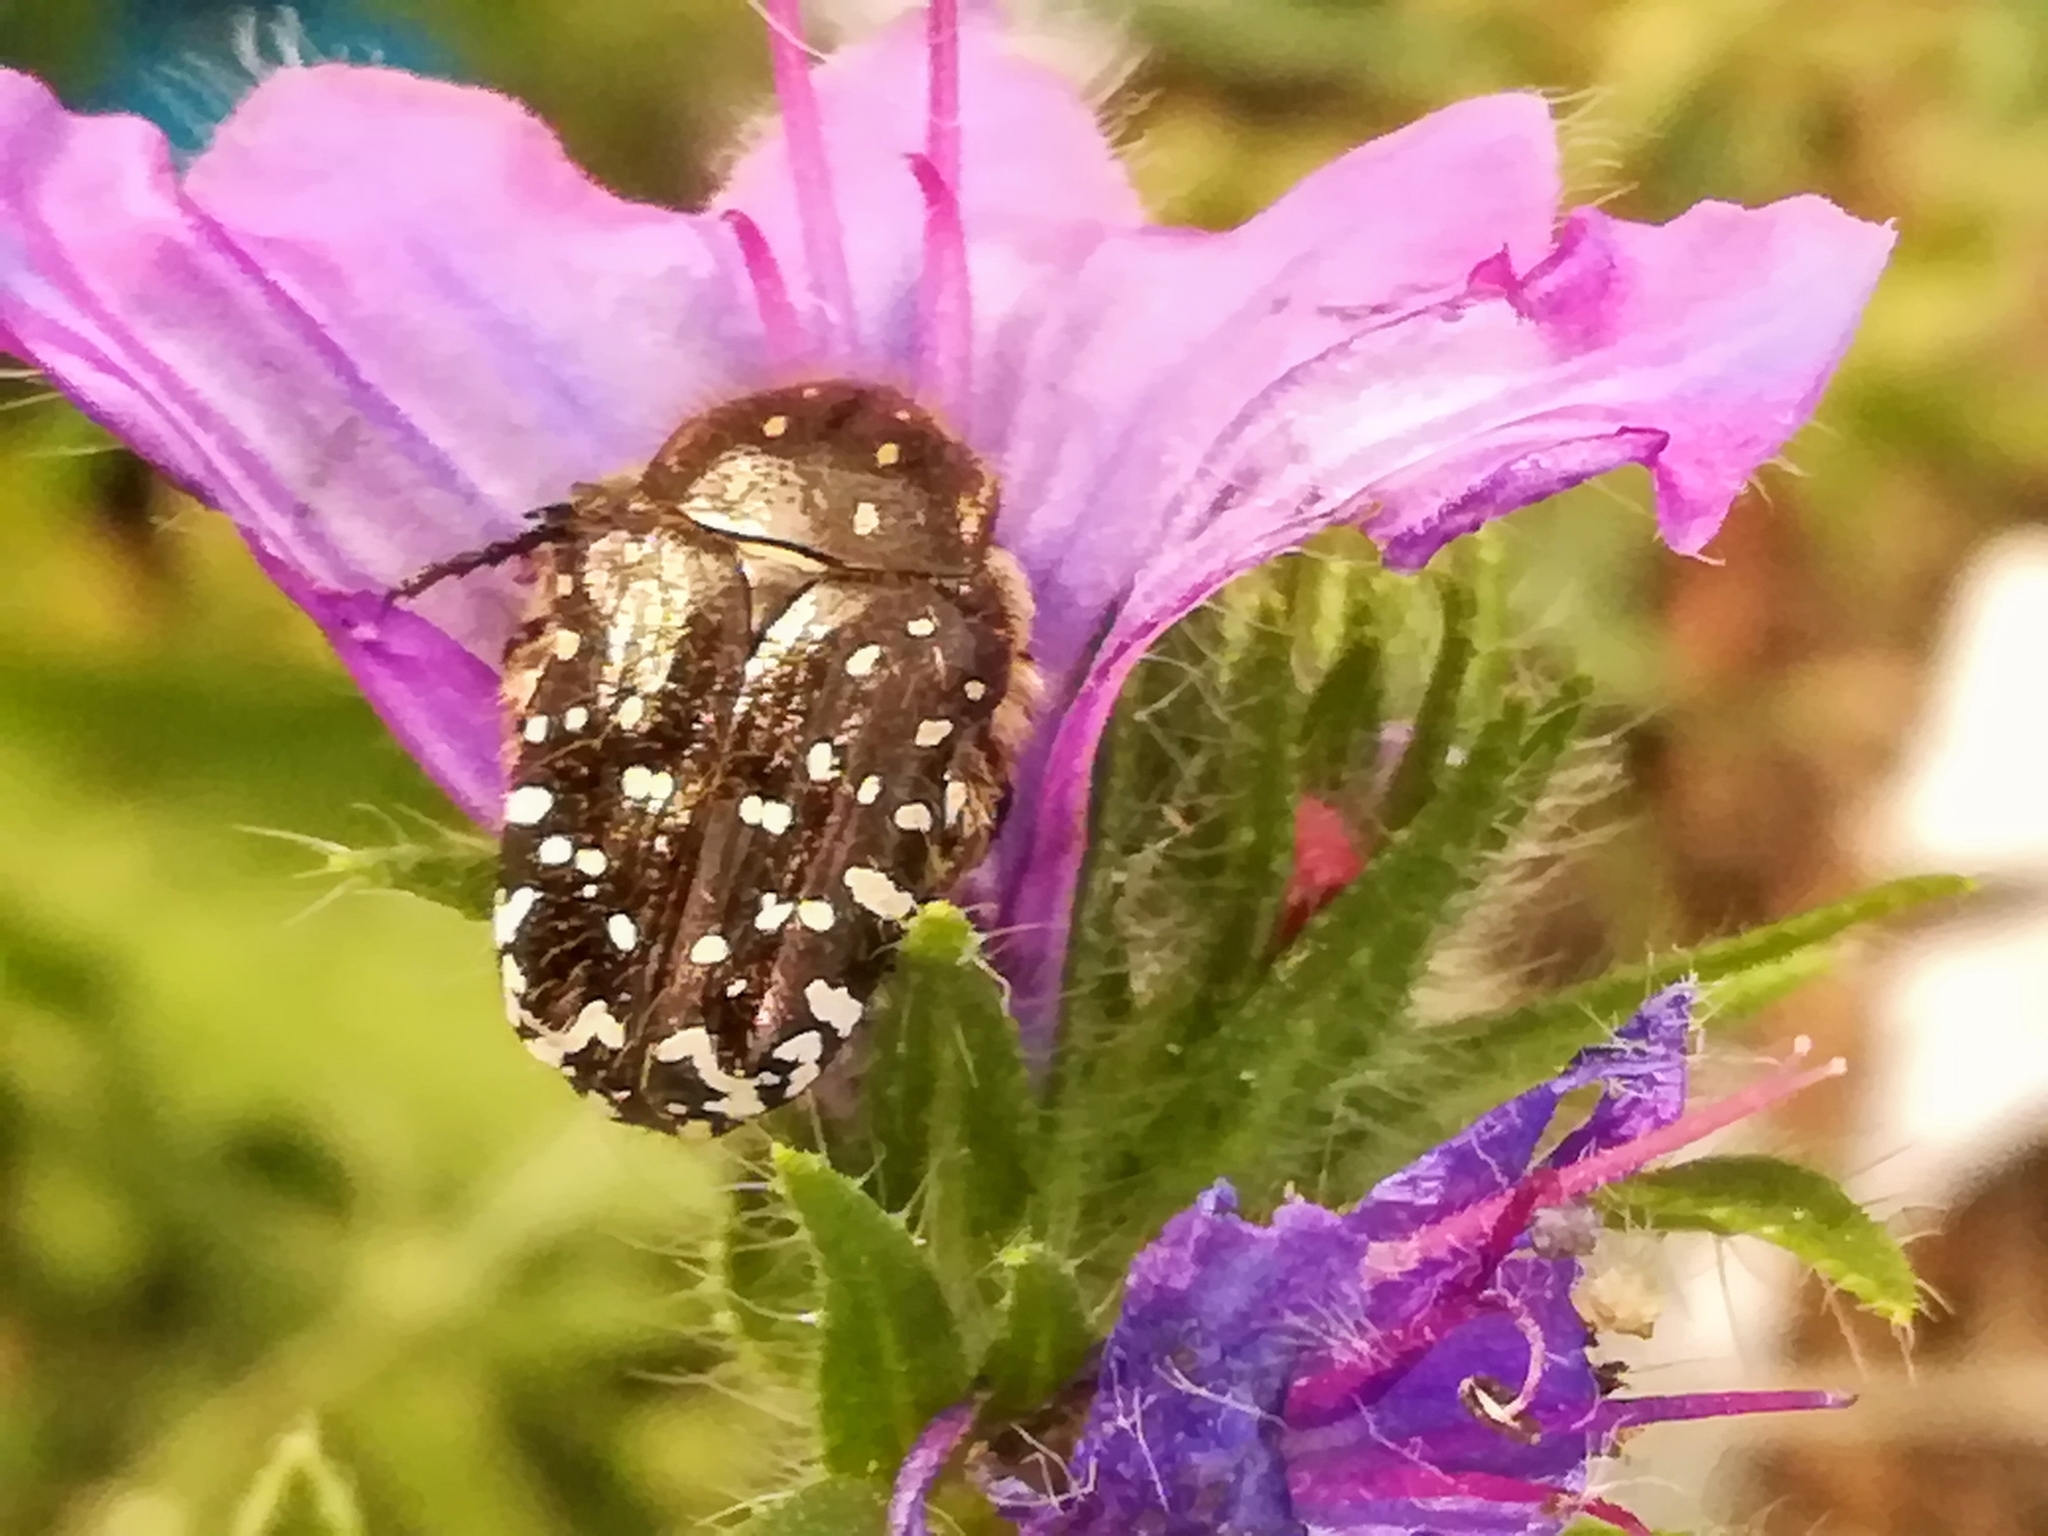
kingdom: Animalia
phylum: Arthropoda
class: Insecta
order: Coleoptera
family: Scarabaeidae
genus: Oxythyrea
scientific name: Oxythyrea funesta
